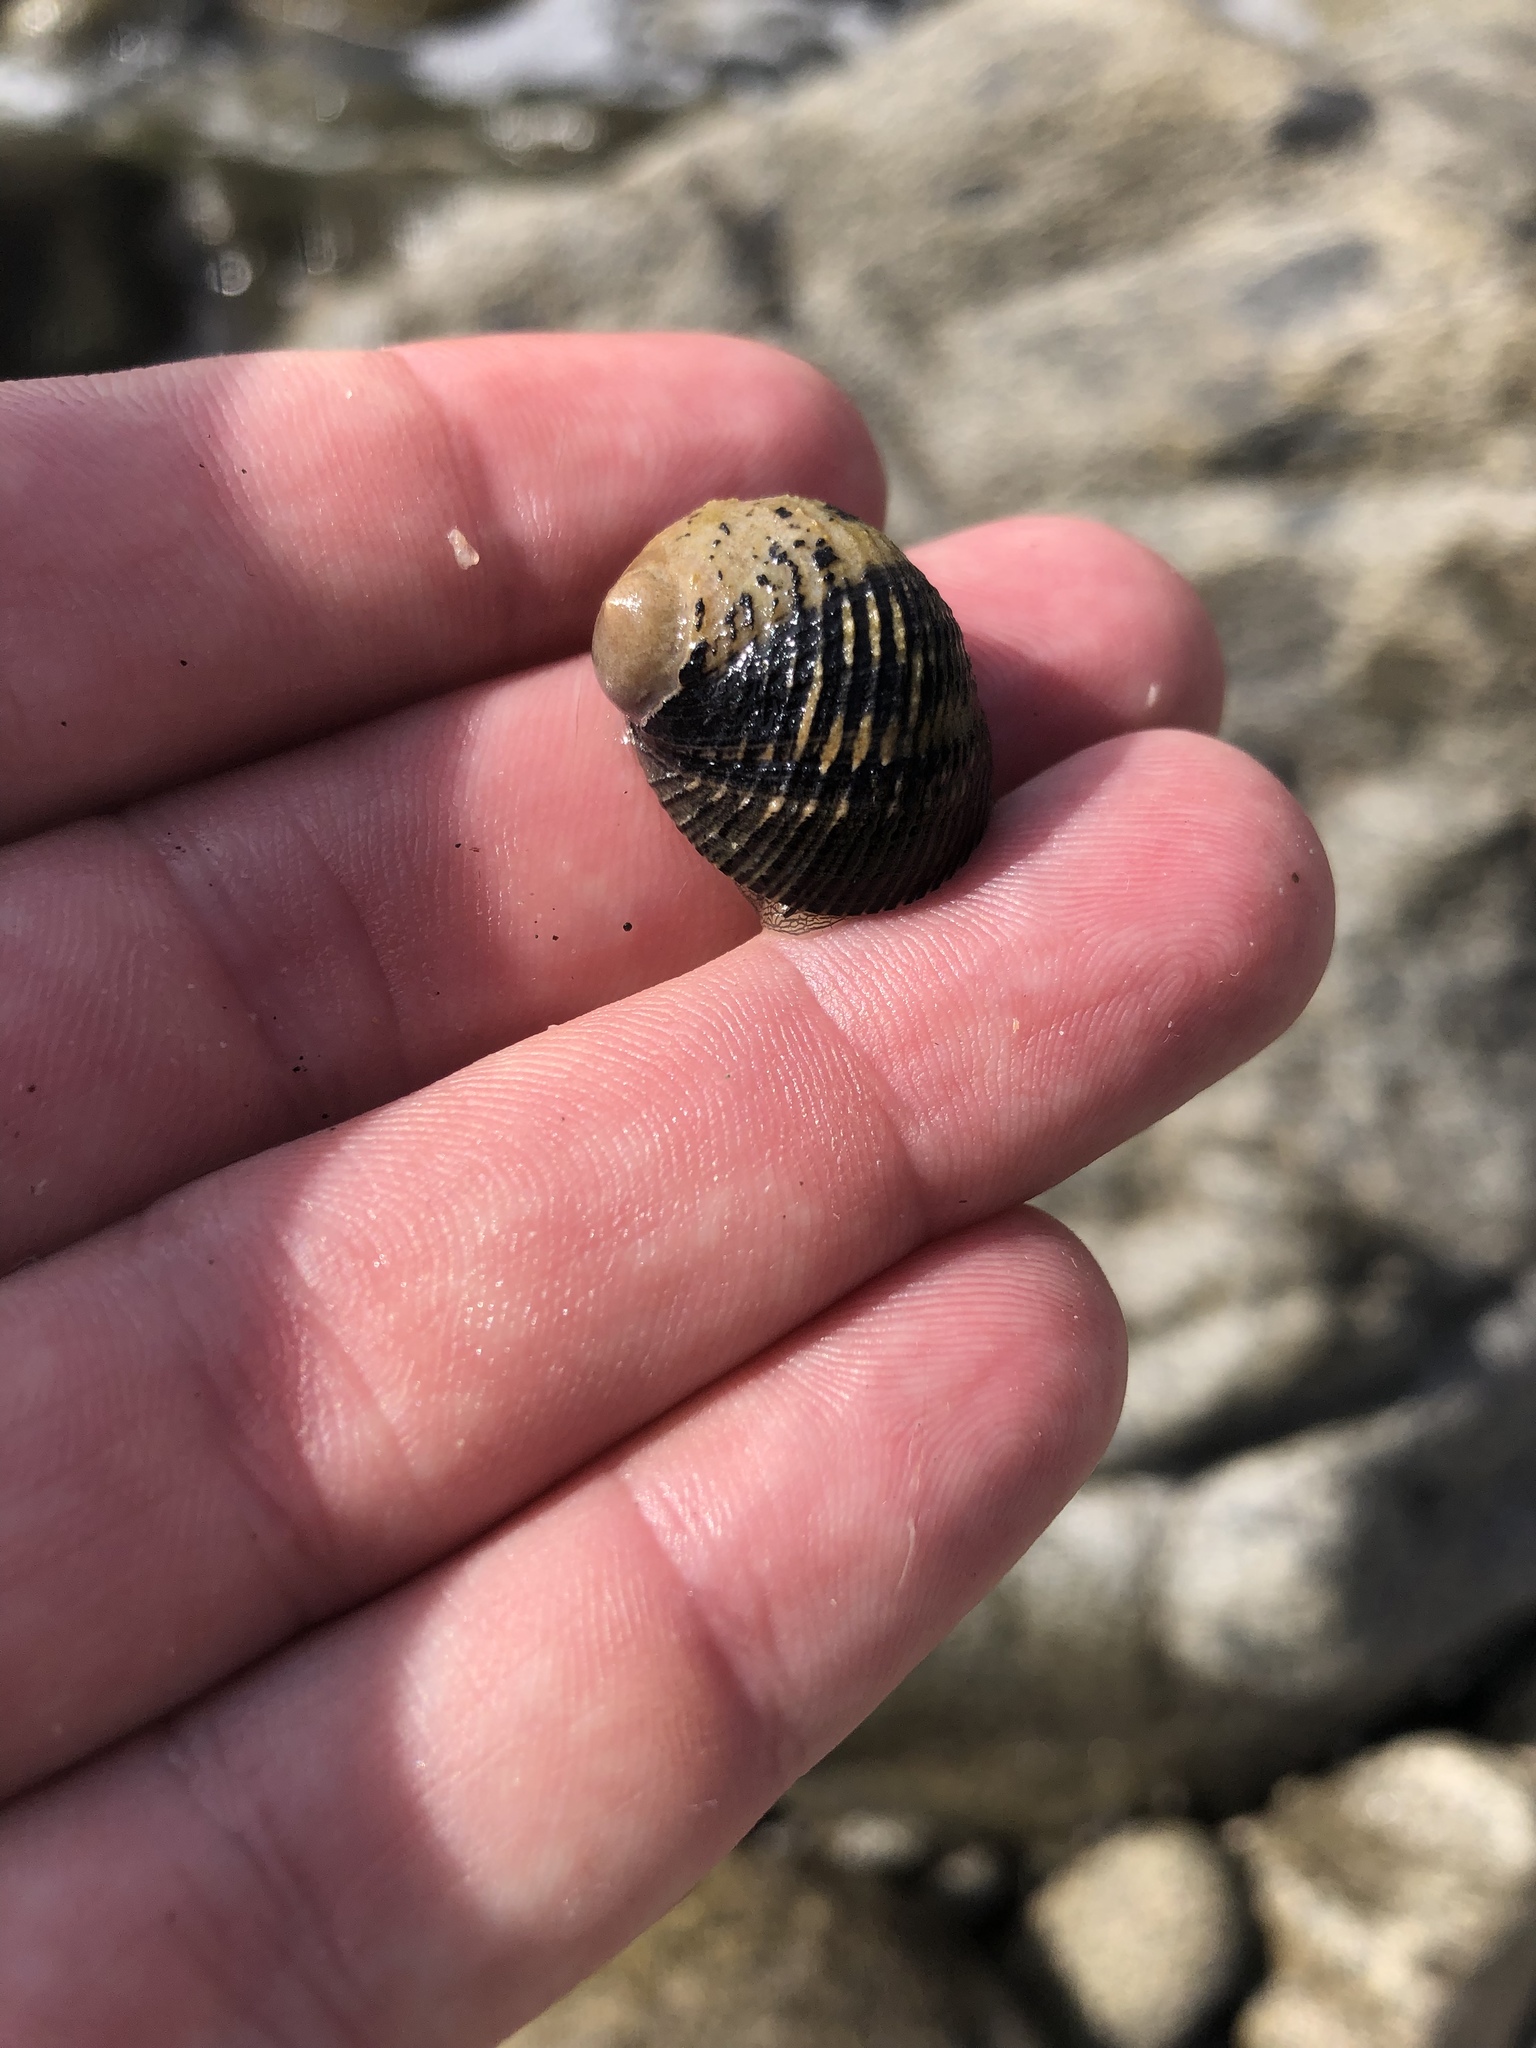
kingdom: Animalia
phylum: Mollusca
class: Gastropoda
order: Cycloneritida
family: Neritidae
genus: Nerita
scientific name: Nerita scabricosta
